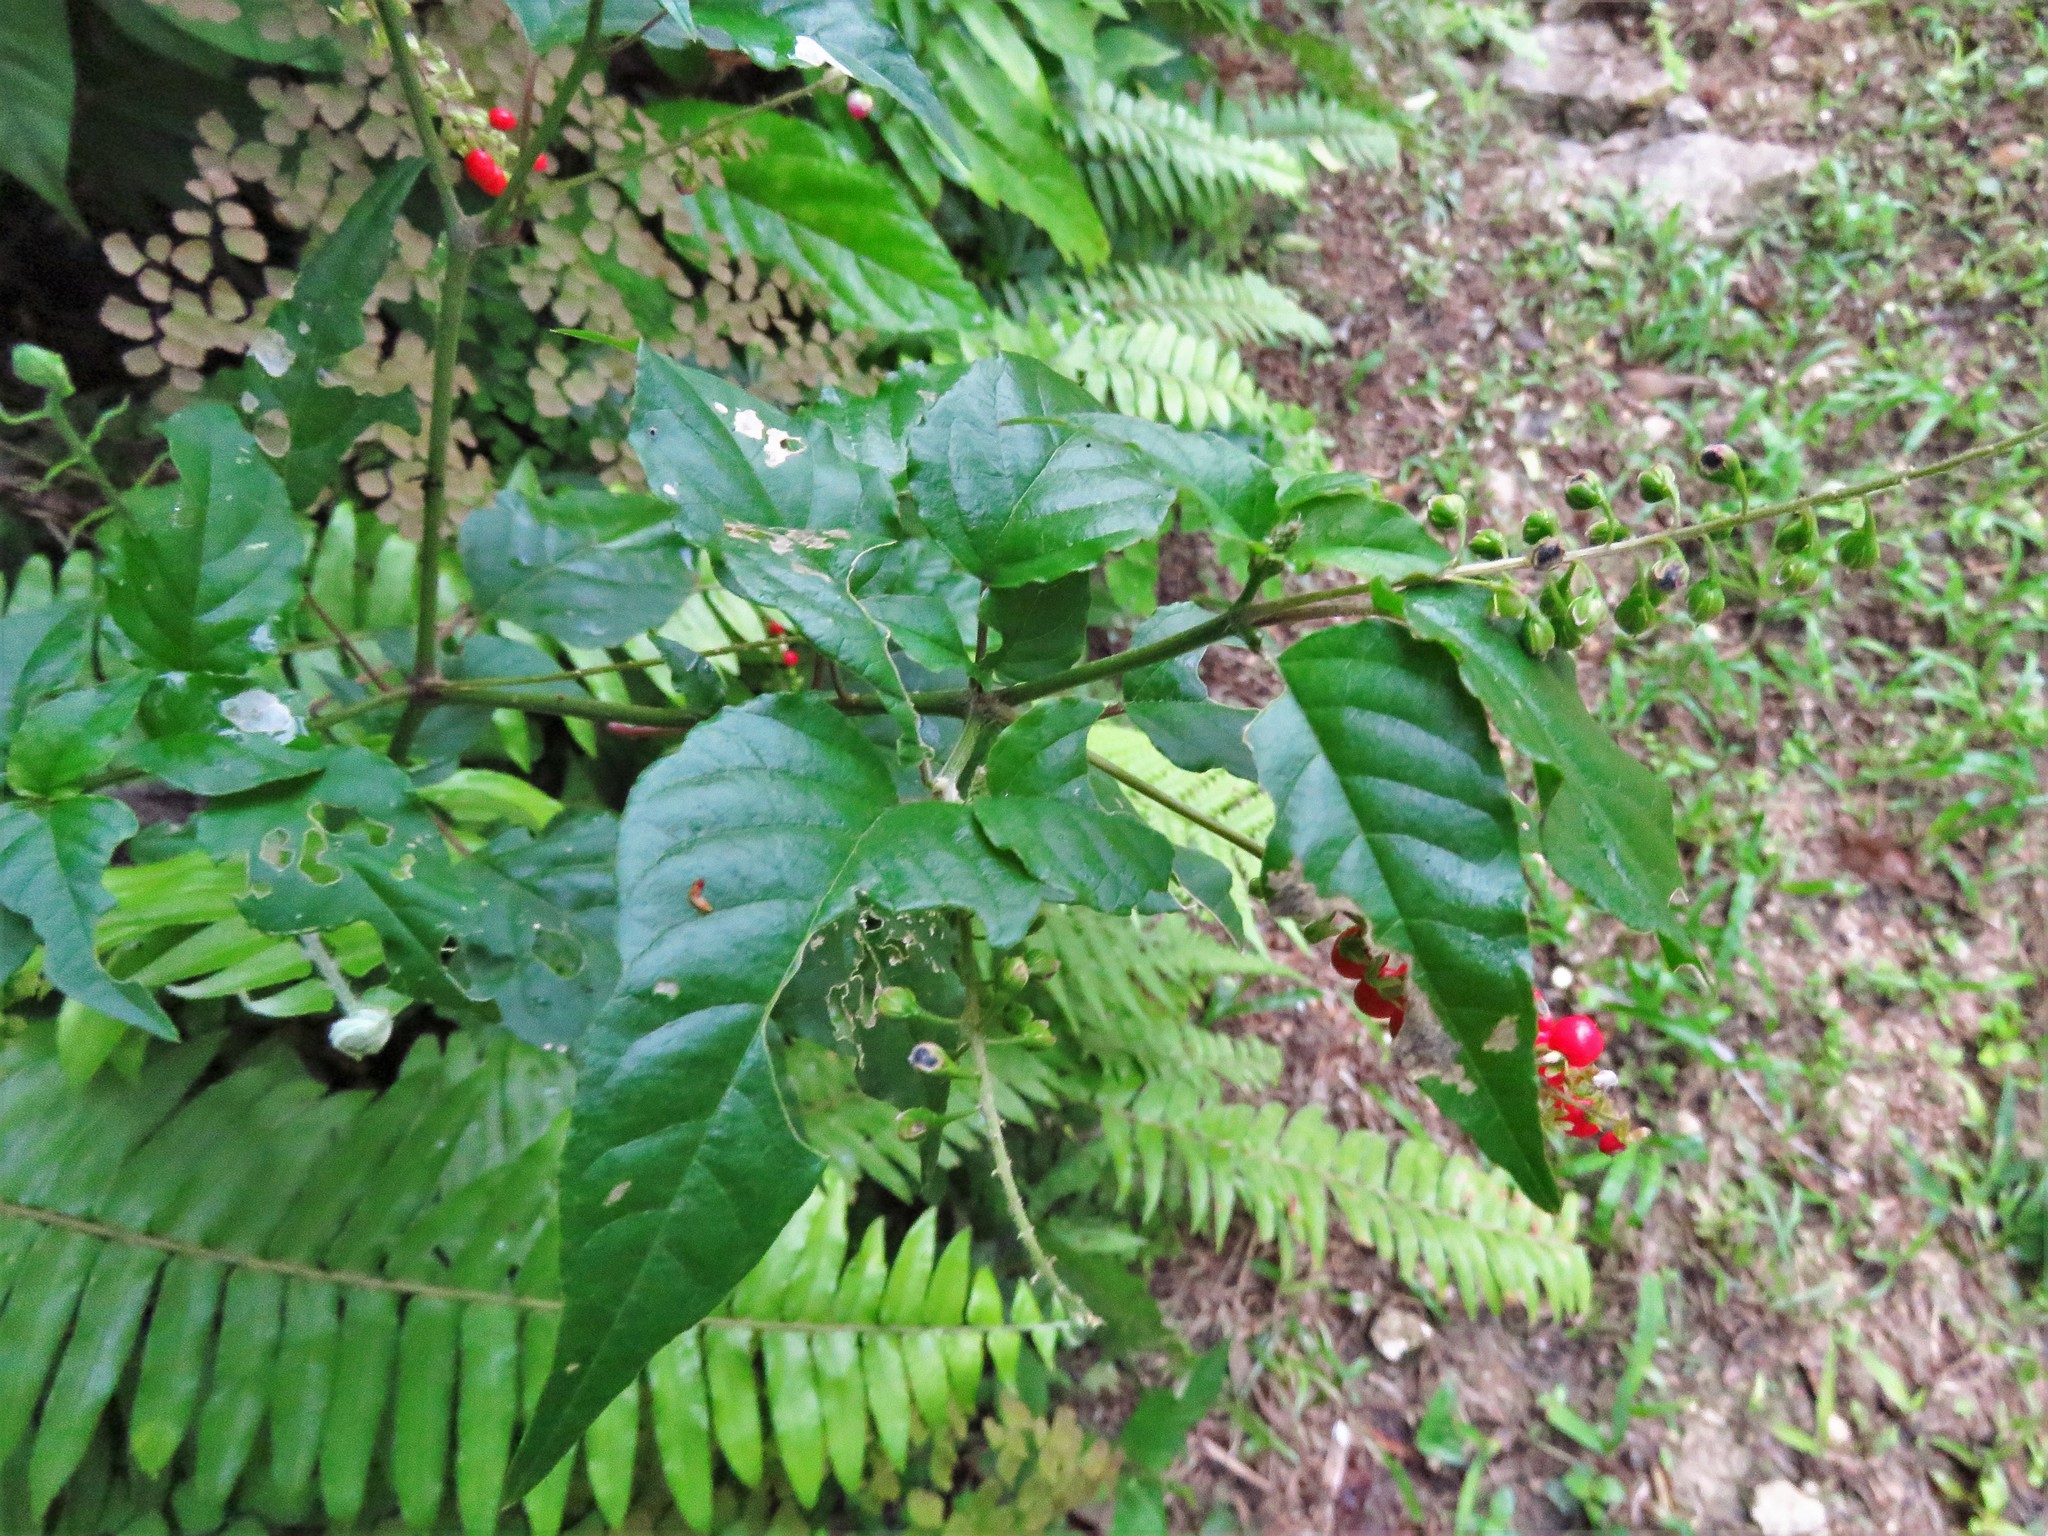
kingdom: Plantae
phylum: Tracheophyta
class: Magnoliopsida
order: Caryophyllales
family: Phytolaccaceae
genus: Rivina
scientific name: Rivina humilis
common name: Rougeplant
